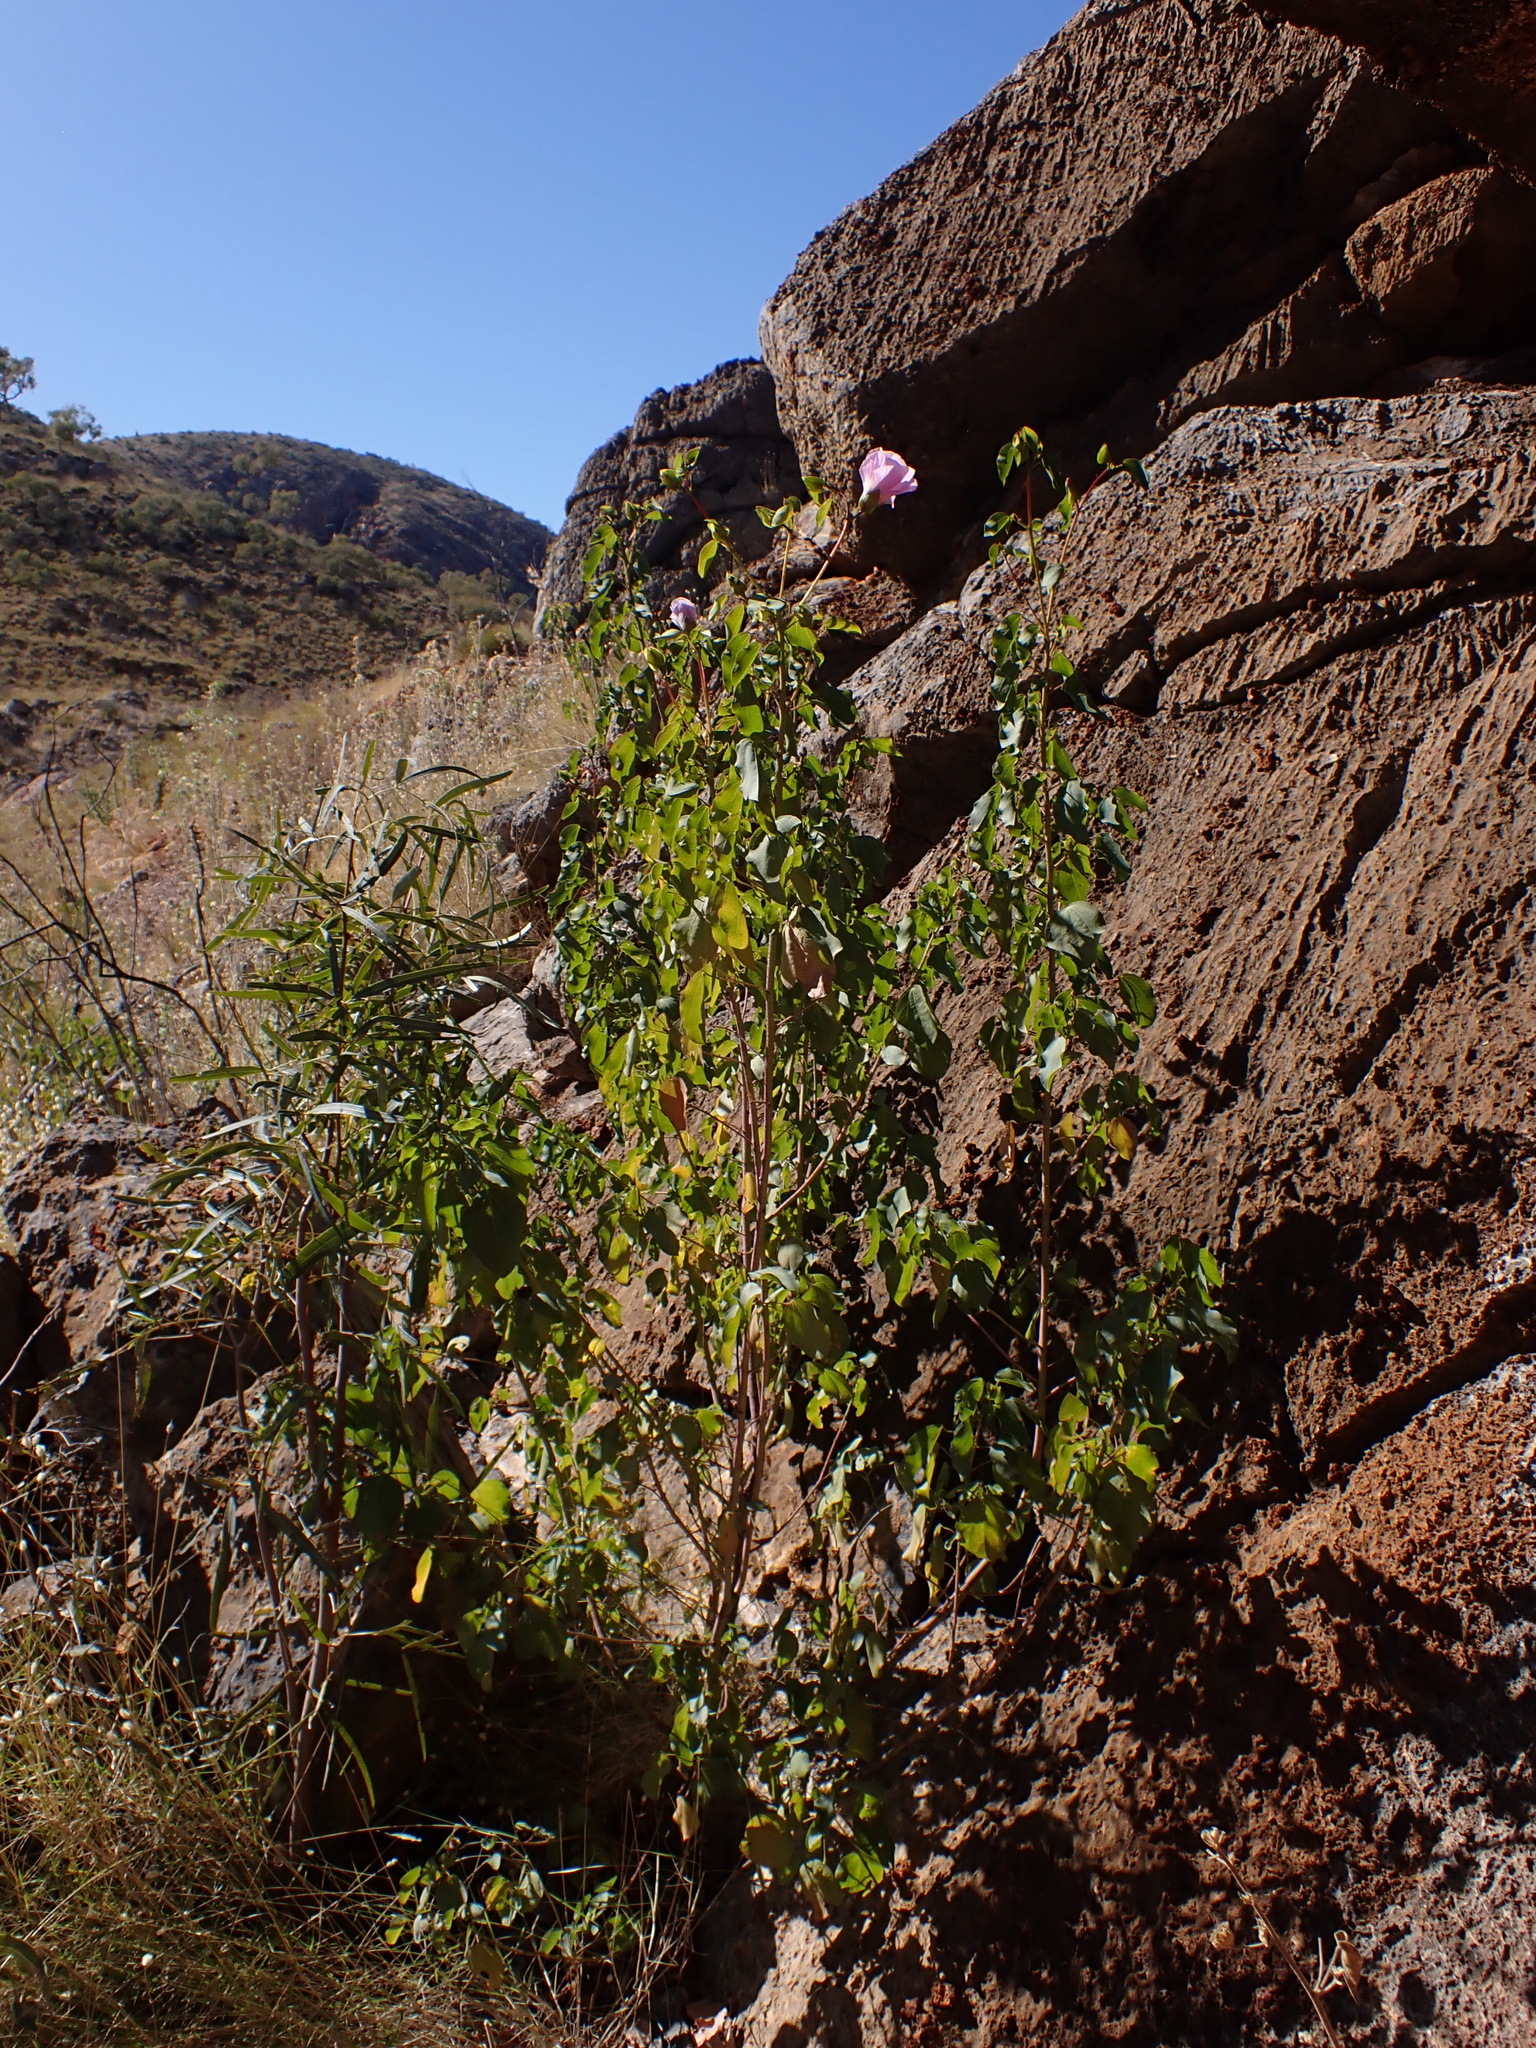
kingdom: Plantae
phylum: Tracheophyta
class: Magnoliopsida
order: Malvales
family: Malvaceae
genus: Gossypium
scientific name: Gossypium sturtianum
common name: Sturt's desert-rose
